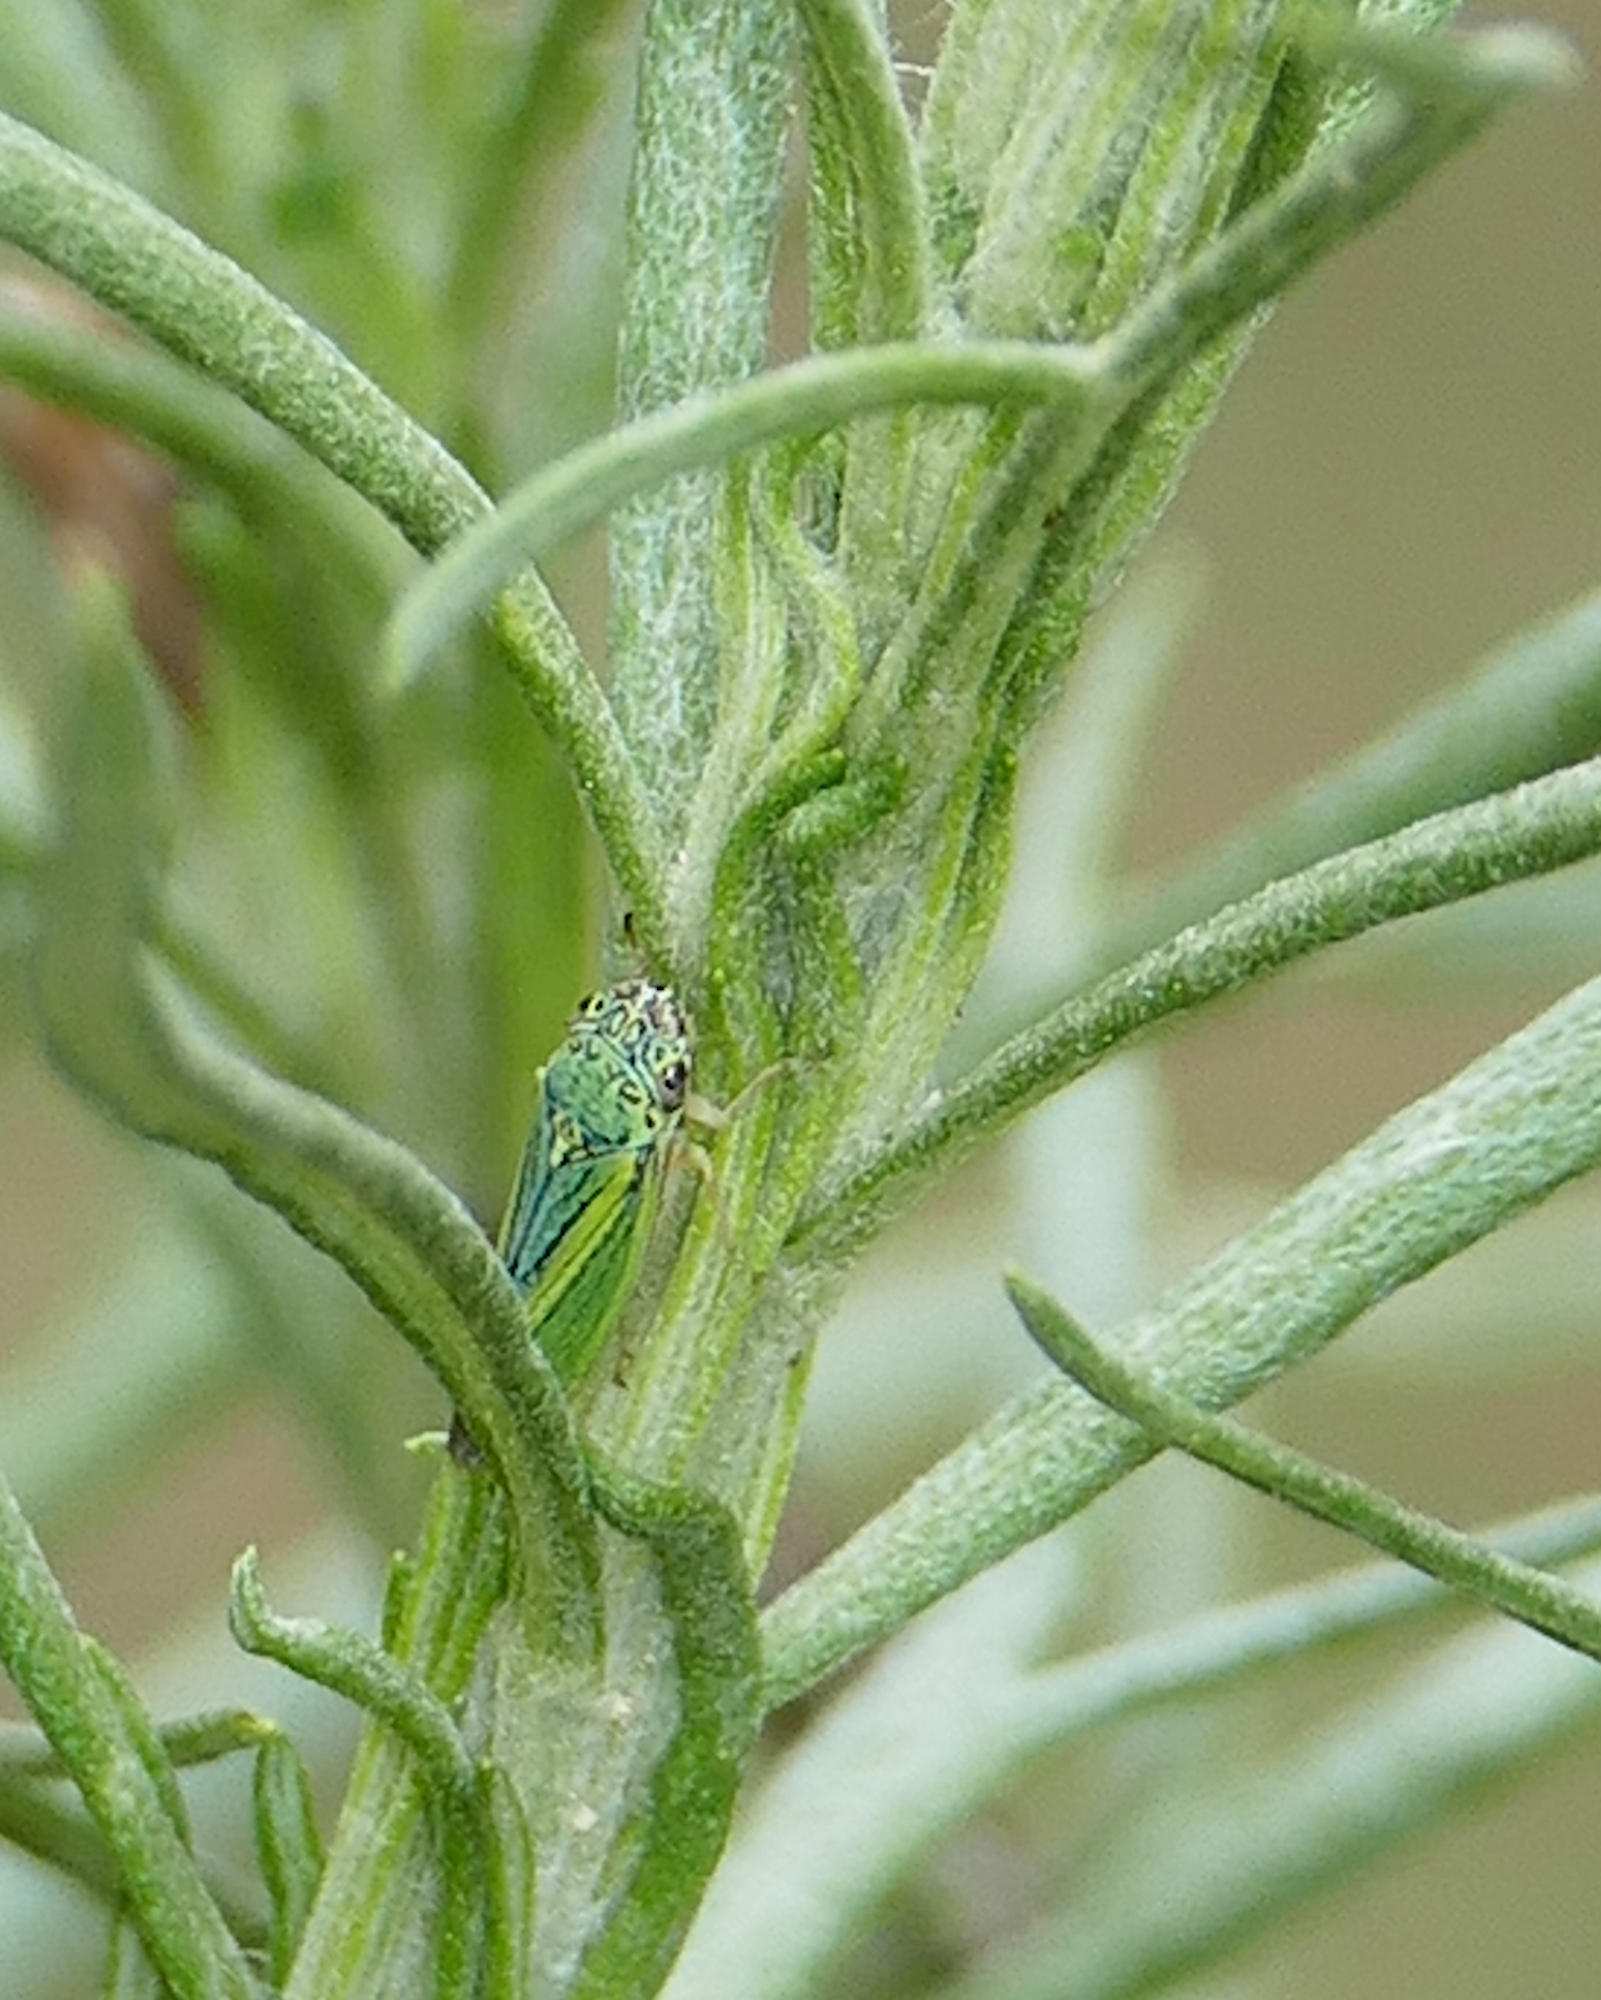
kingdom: Animalia
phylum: Arthropoda
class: Insecta
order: Hemiptera
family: Cicadellidae
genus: Graphocephala
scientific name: Graphocephala lugubris
